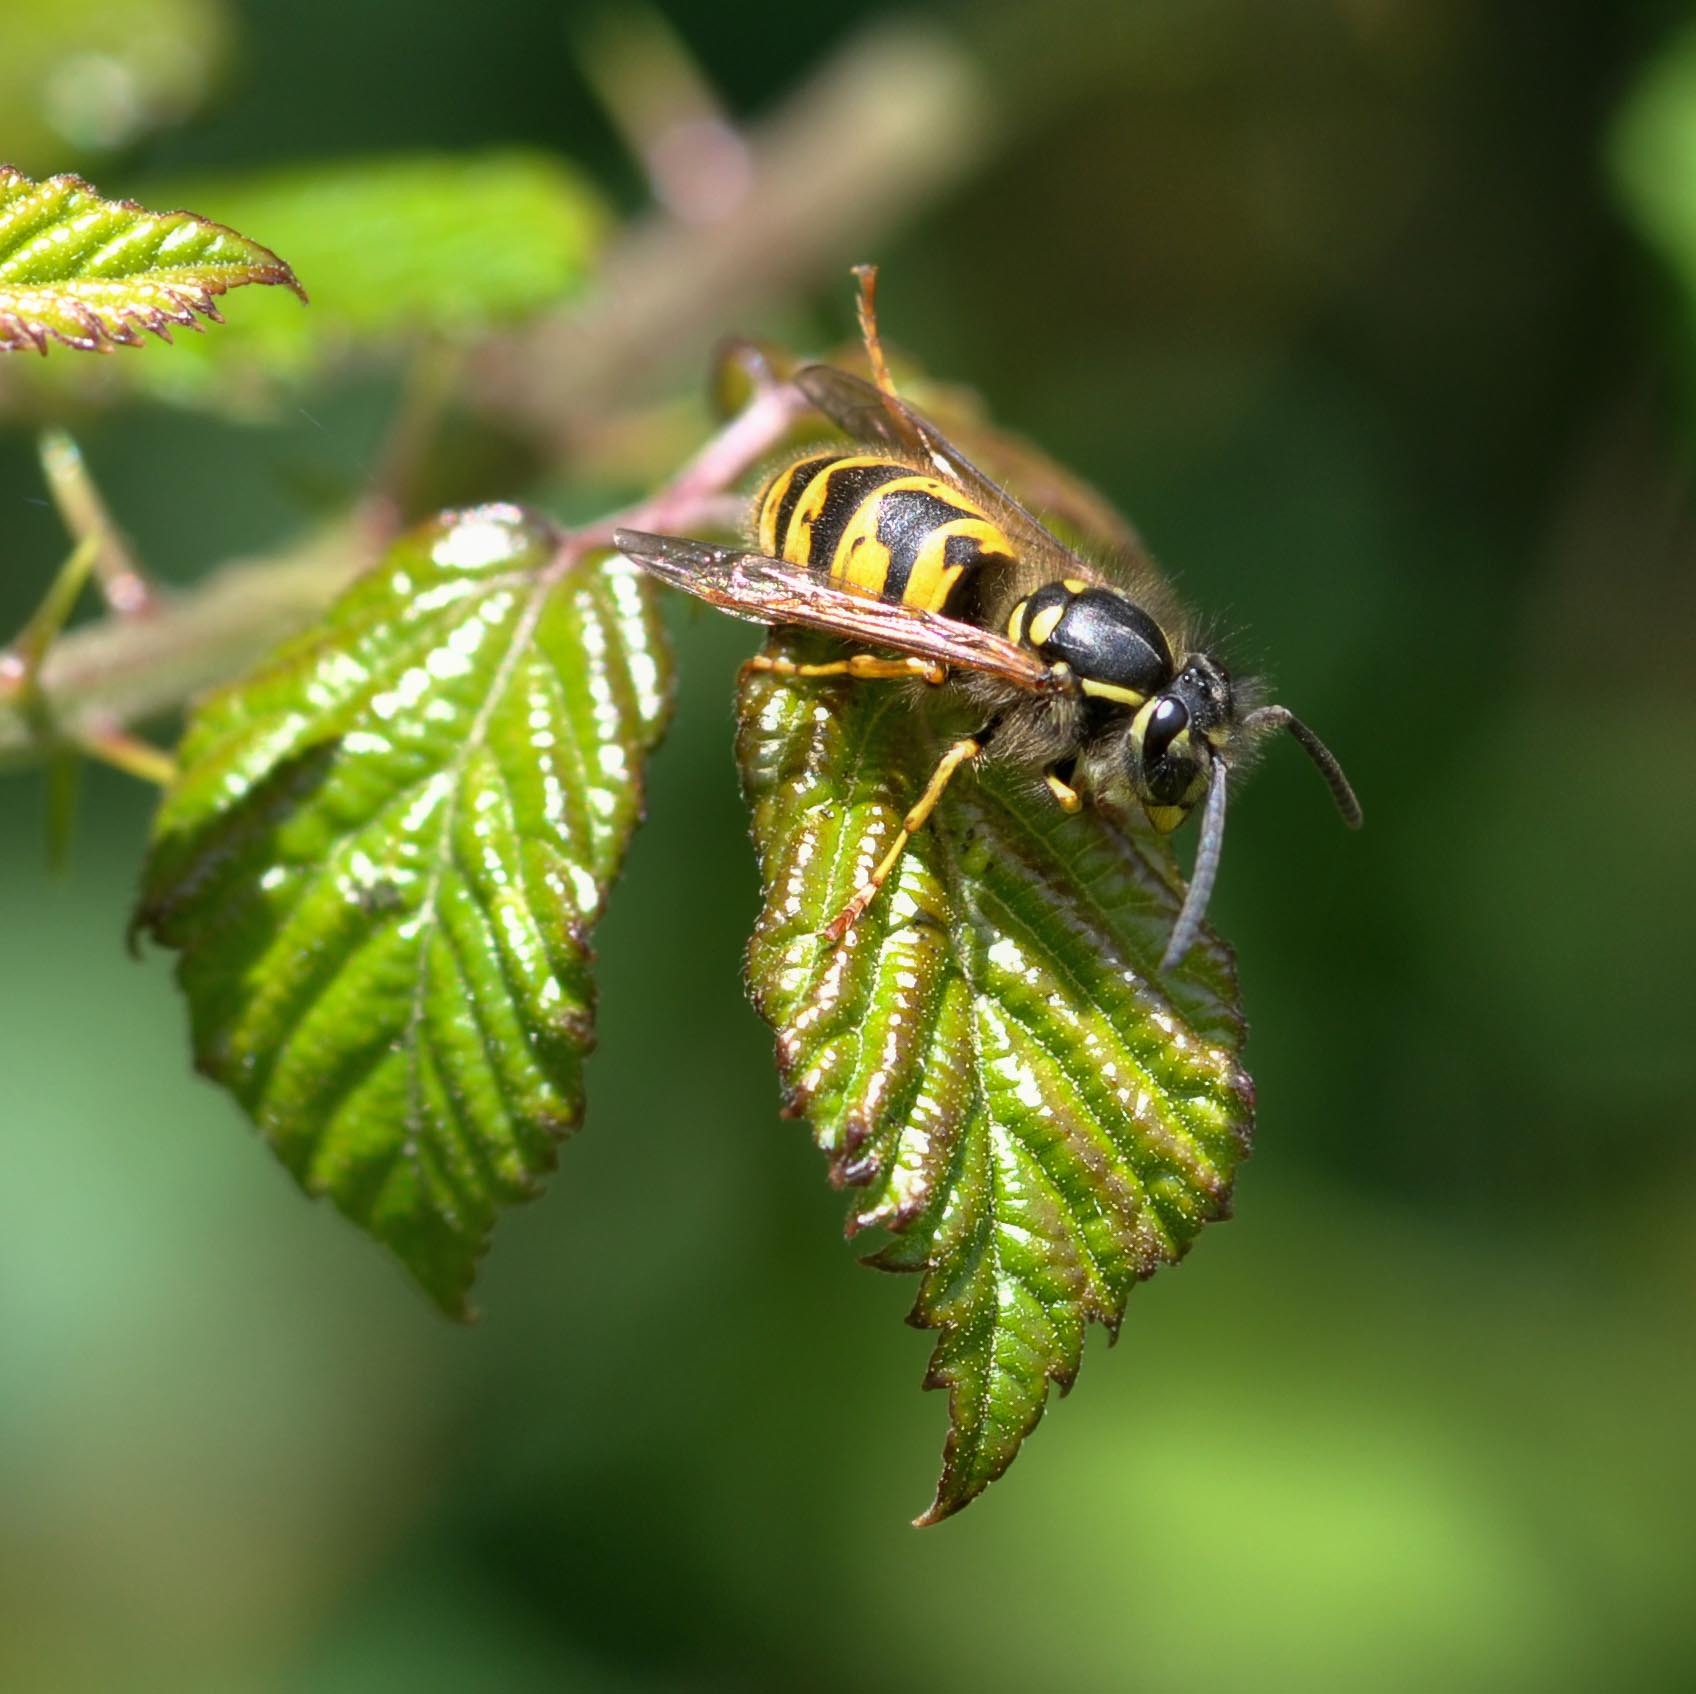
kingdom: Animalia
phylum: Arthropoda
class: Insecta
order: Hymenoptera
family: Vespidae
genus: Vespula
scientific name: Vespula vulgaris
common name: Common wasp
